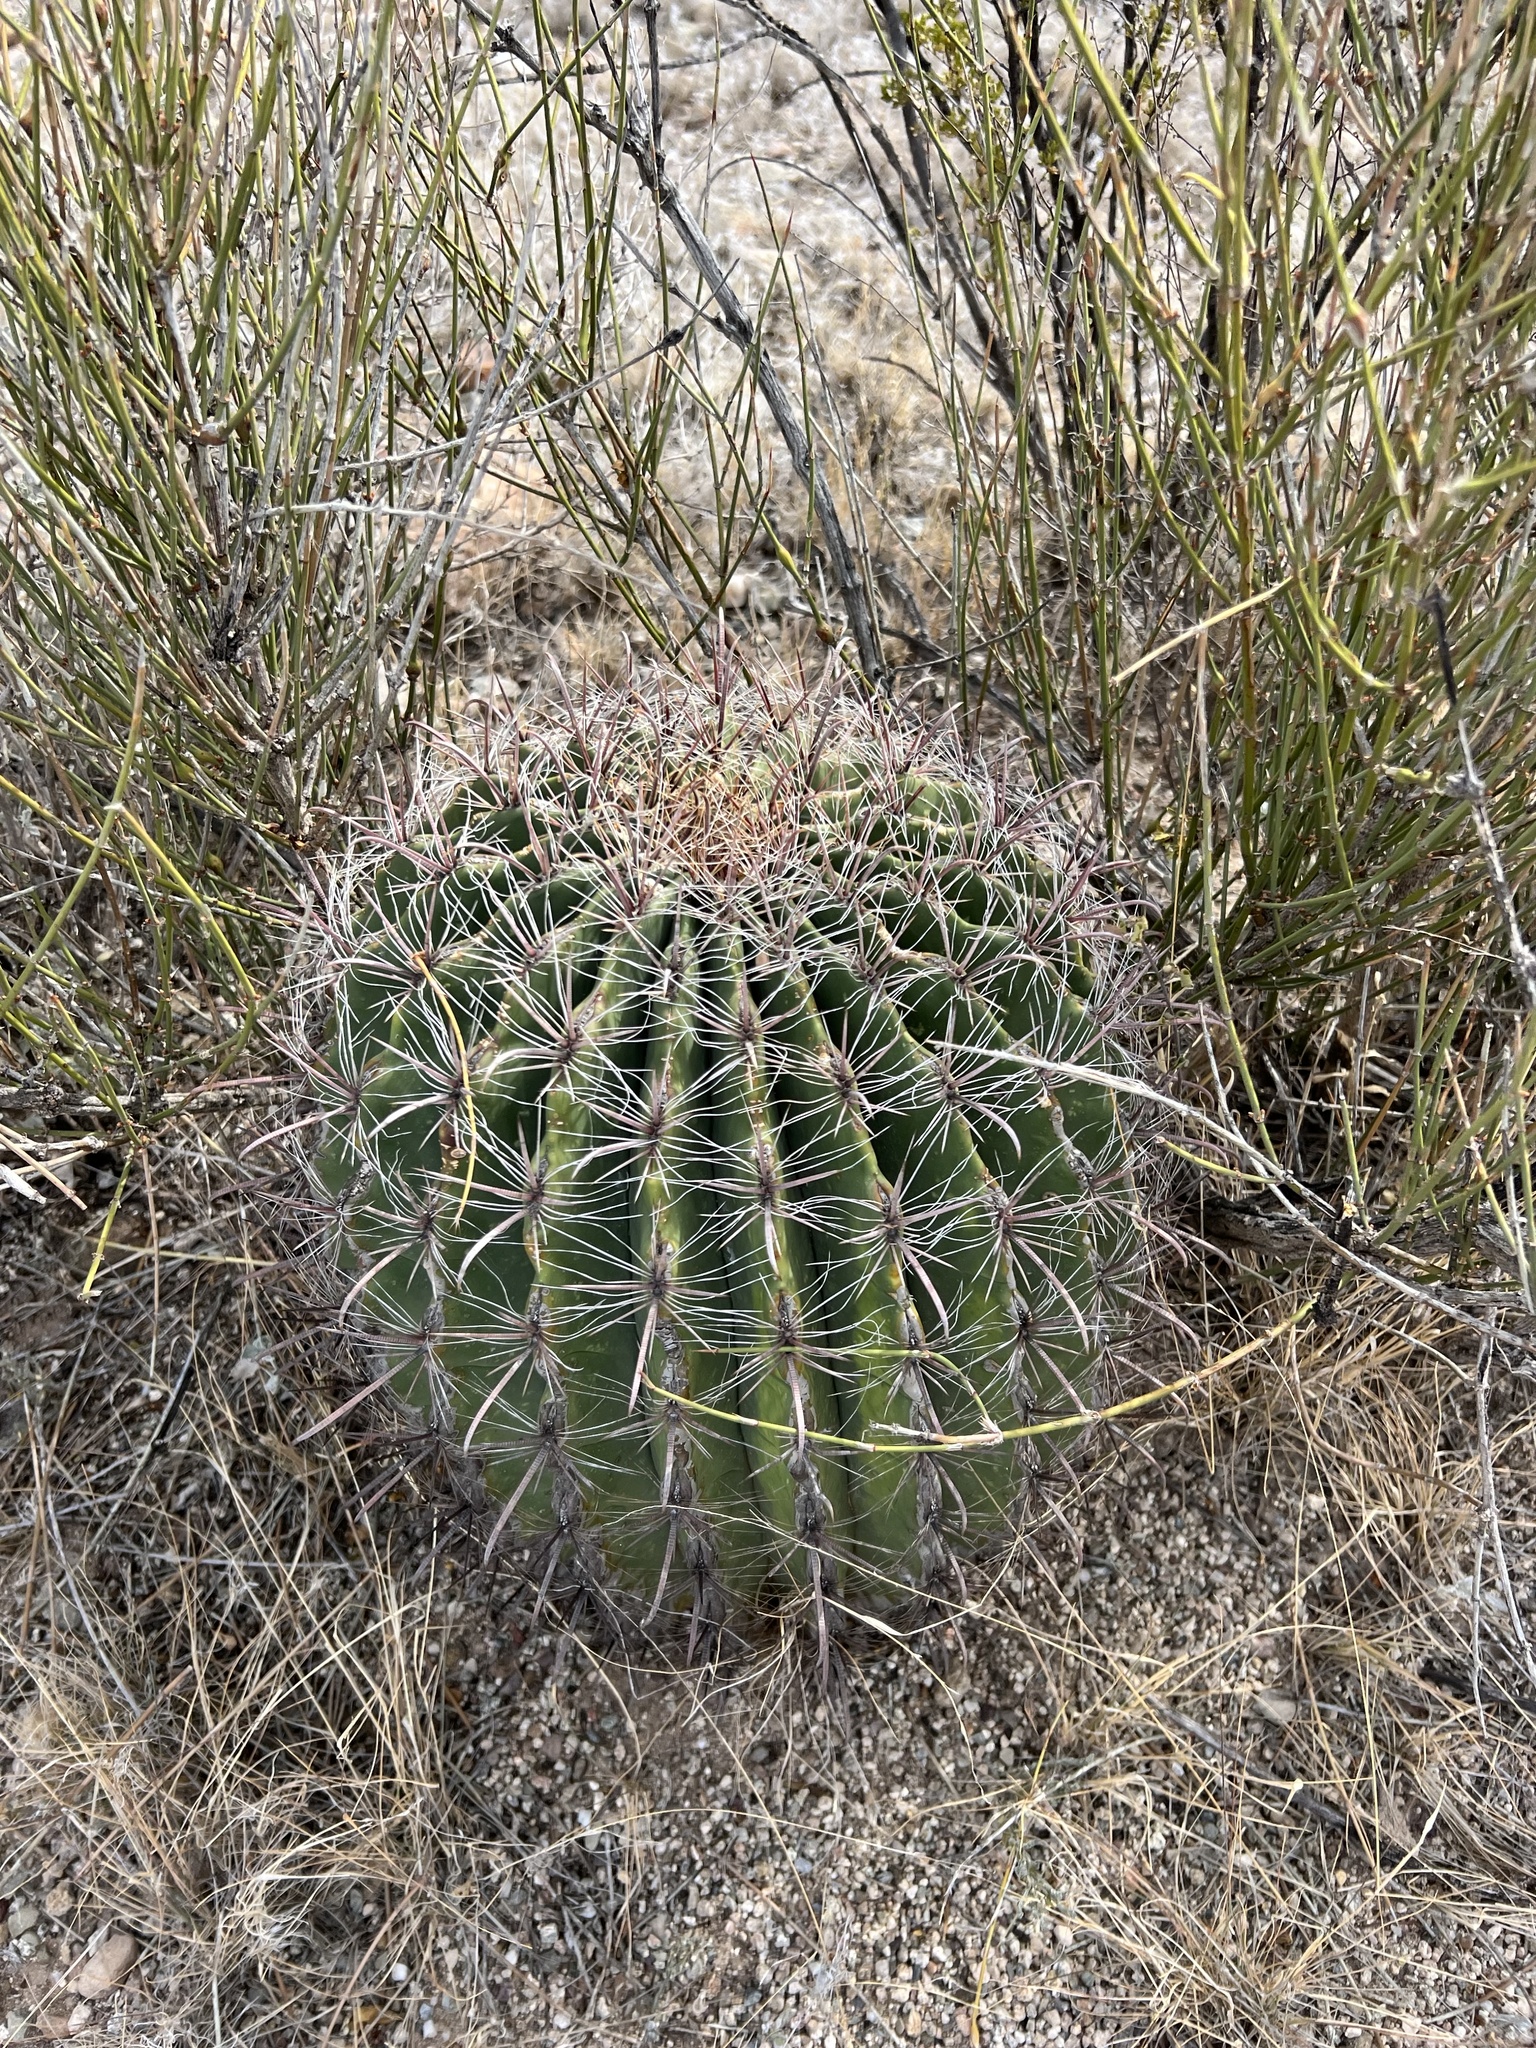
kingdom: Plantae
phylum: Tracheophyta
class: Magnoliopsida
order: Caryophyllales
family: Cactaceae
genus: Ferocactus
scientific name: Ferocactus wislizeni
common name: Candy barrel cactus
